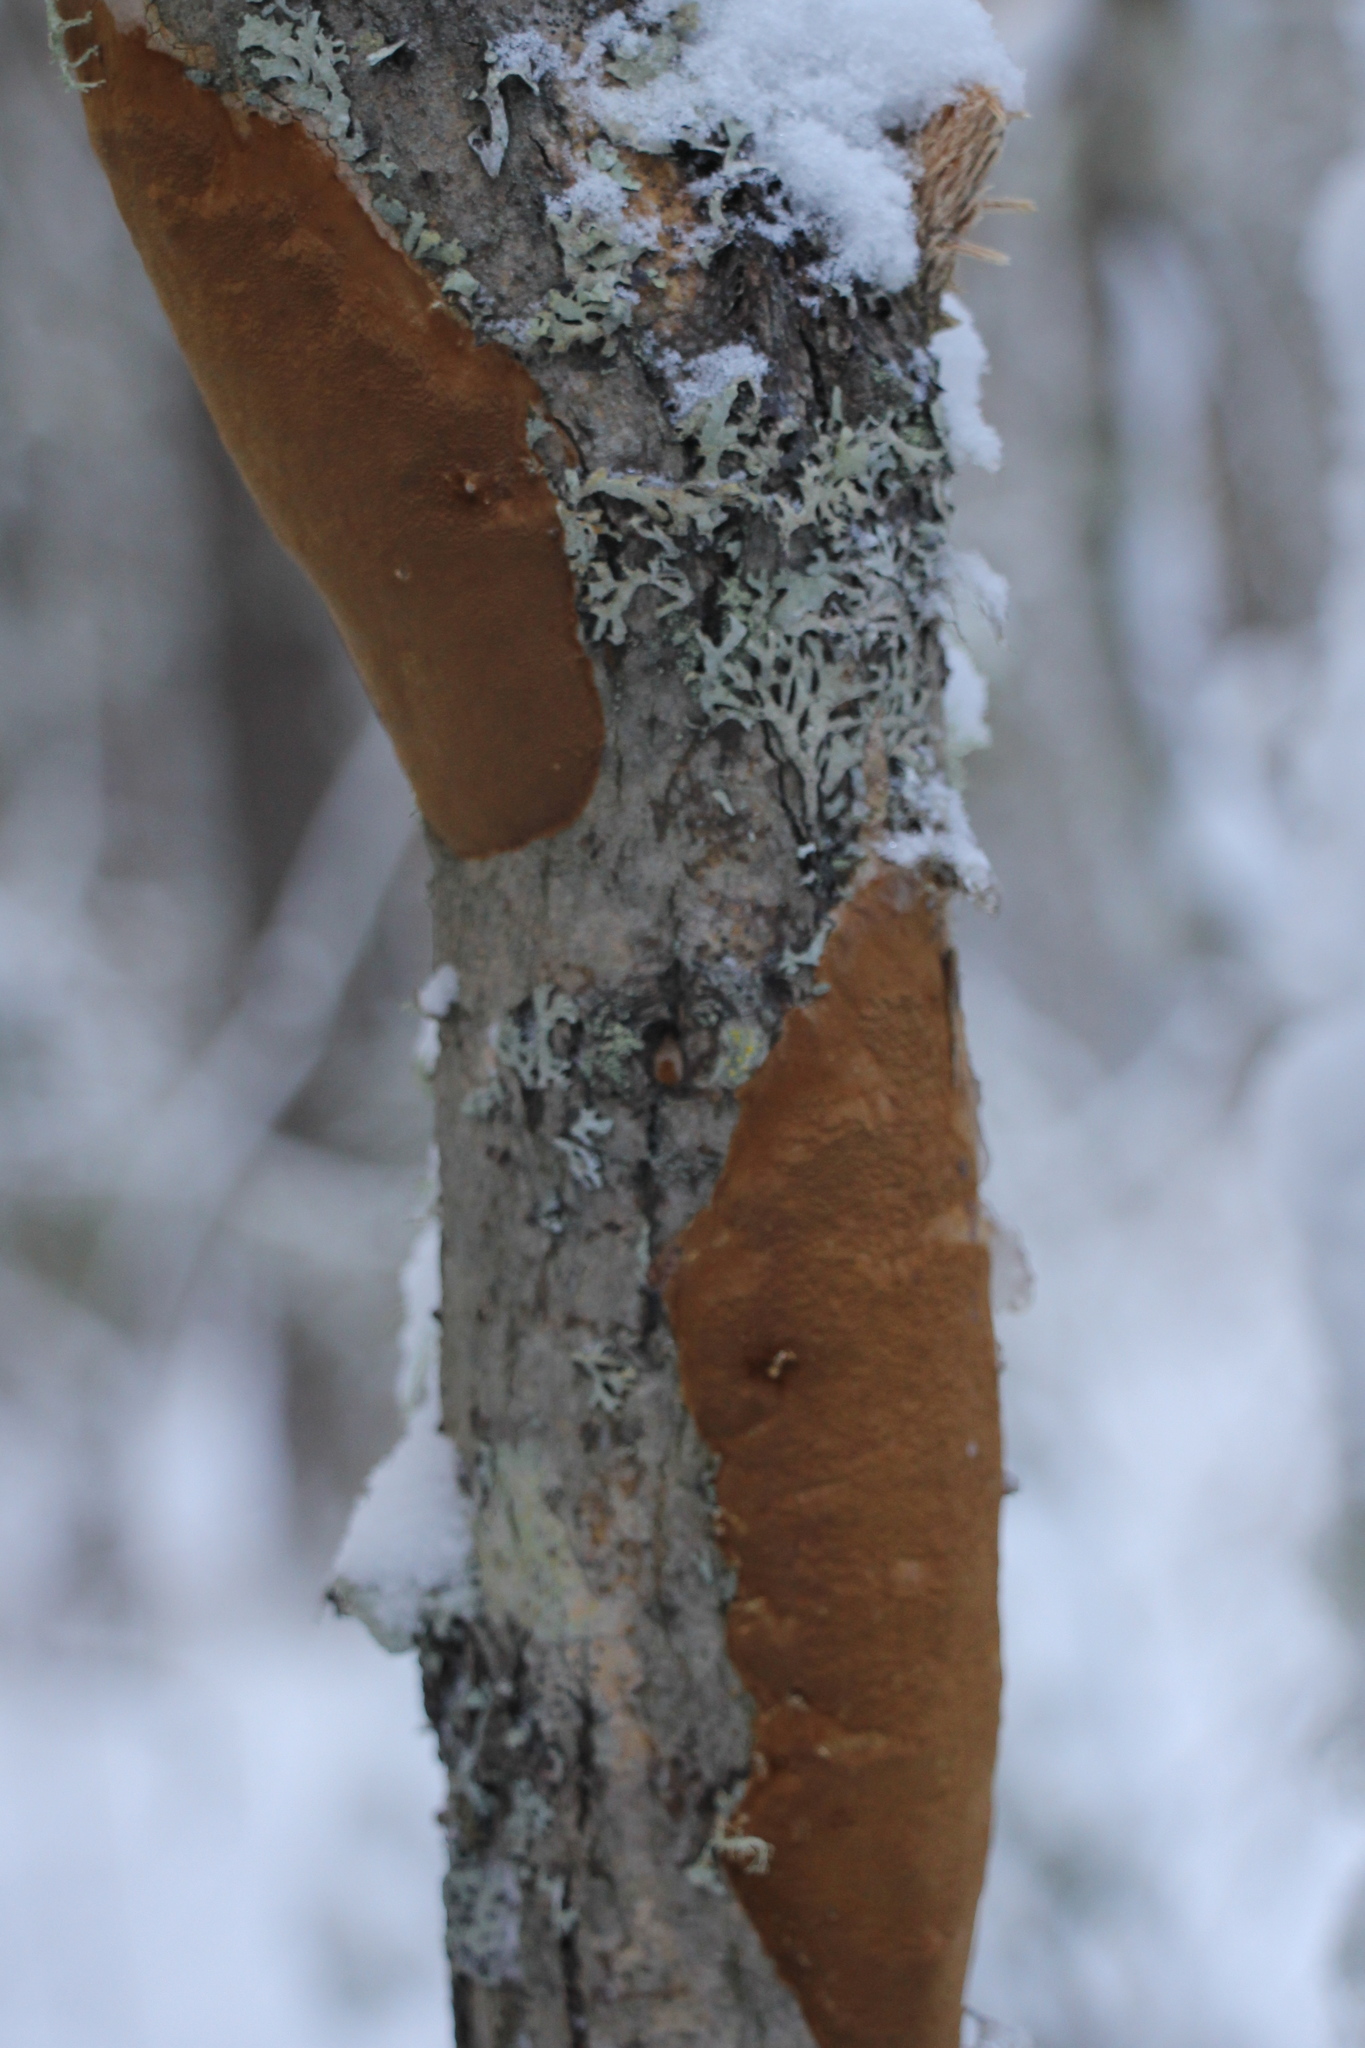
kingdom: Fungi
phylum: Basidiomycota
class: Agaricomycetes
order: Hymenochaetales
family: Hymenochaetaceae
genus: Fomitiporia
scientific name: Fomitiporia punctata
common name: Elbowpatch crust
